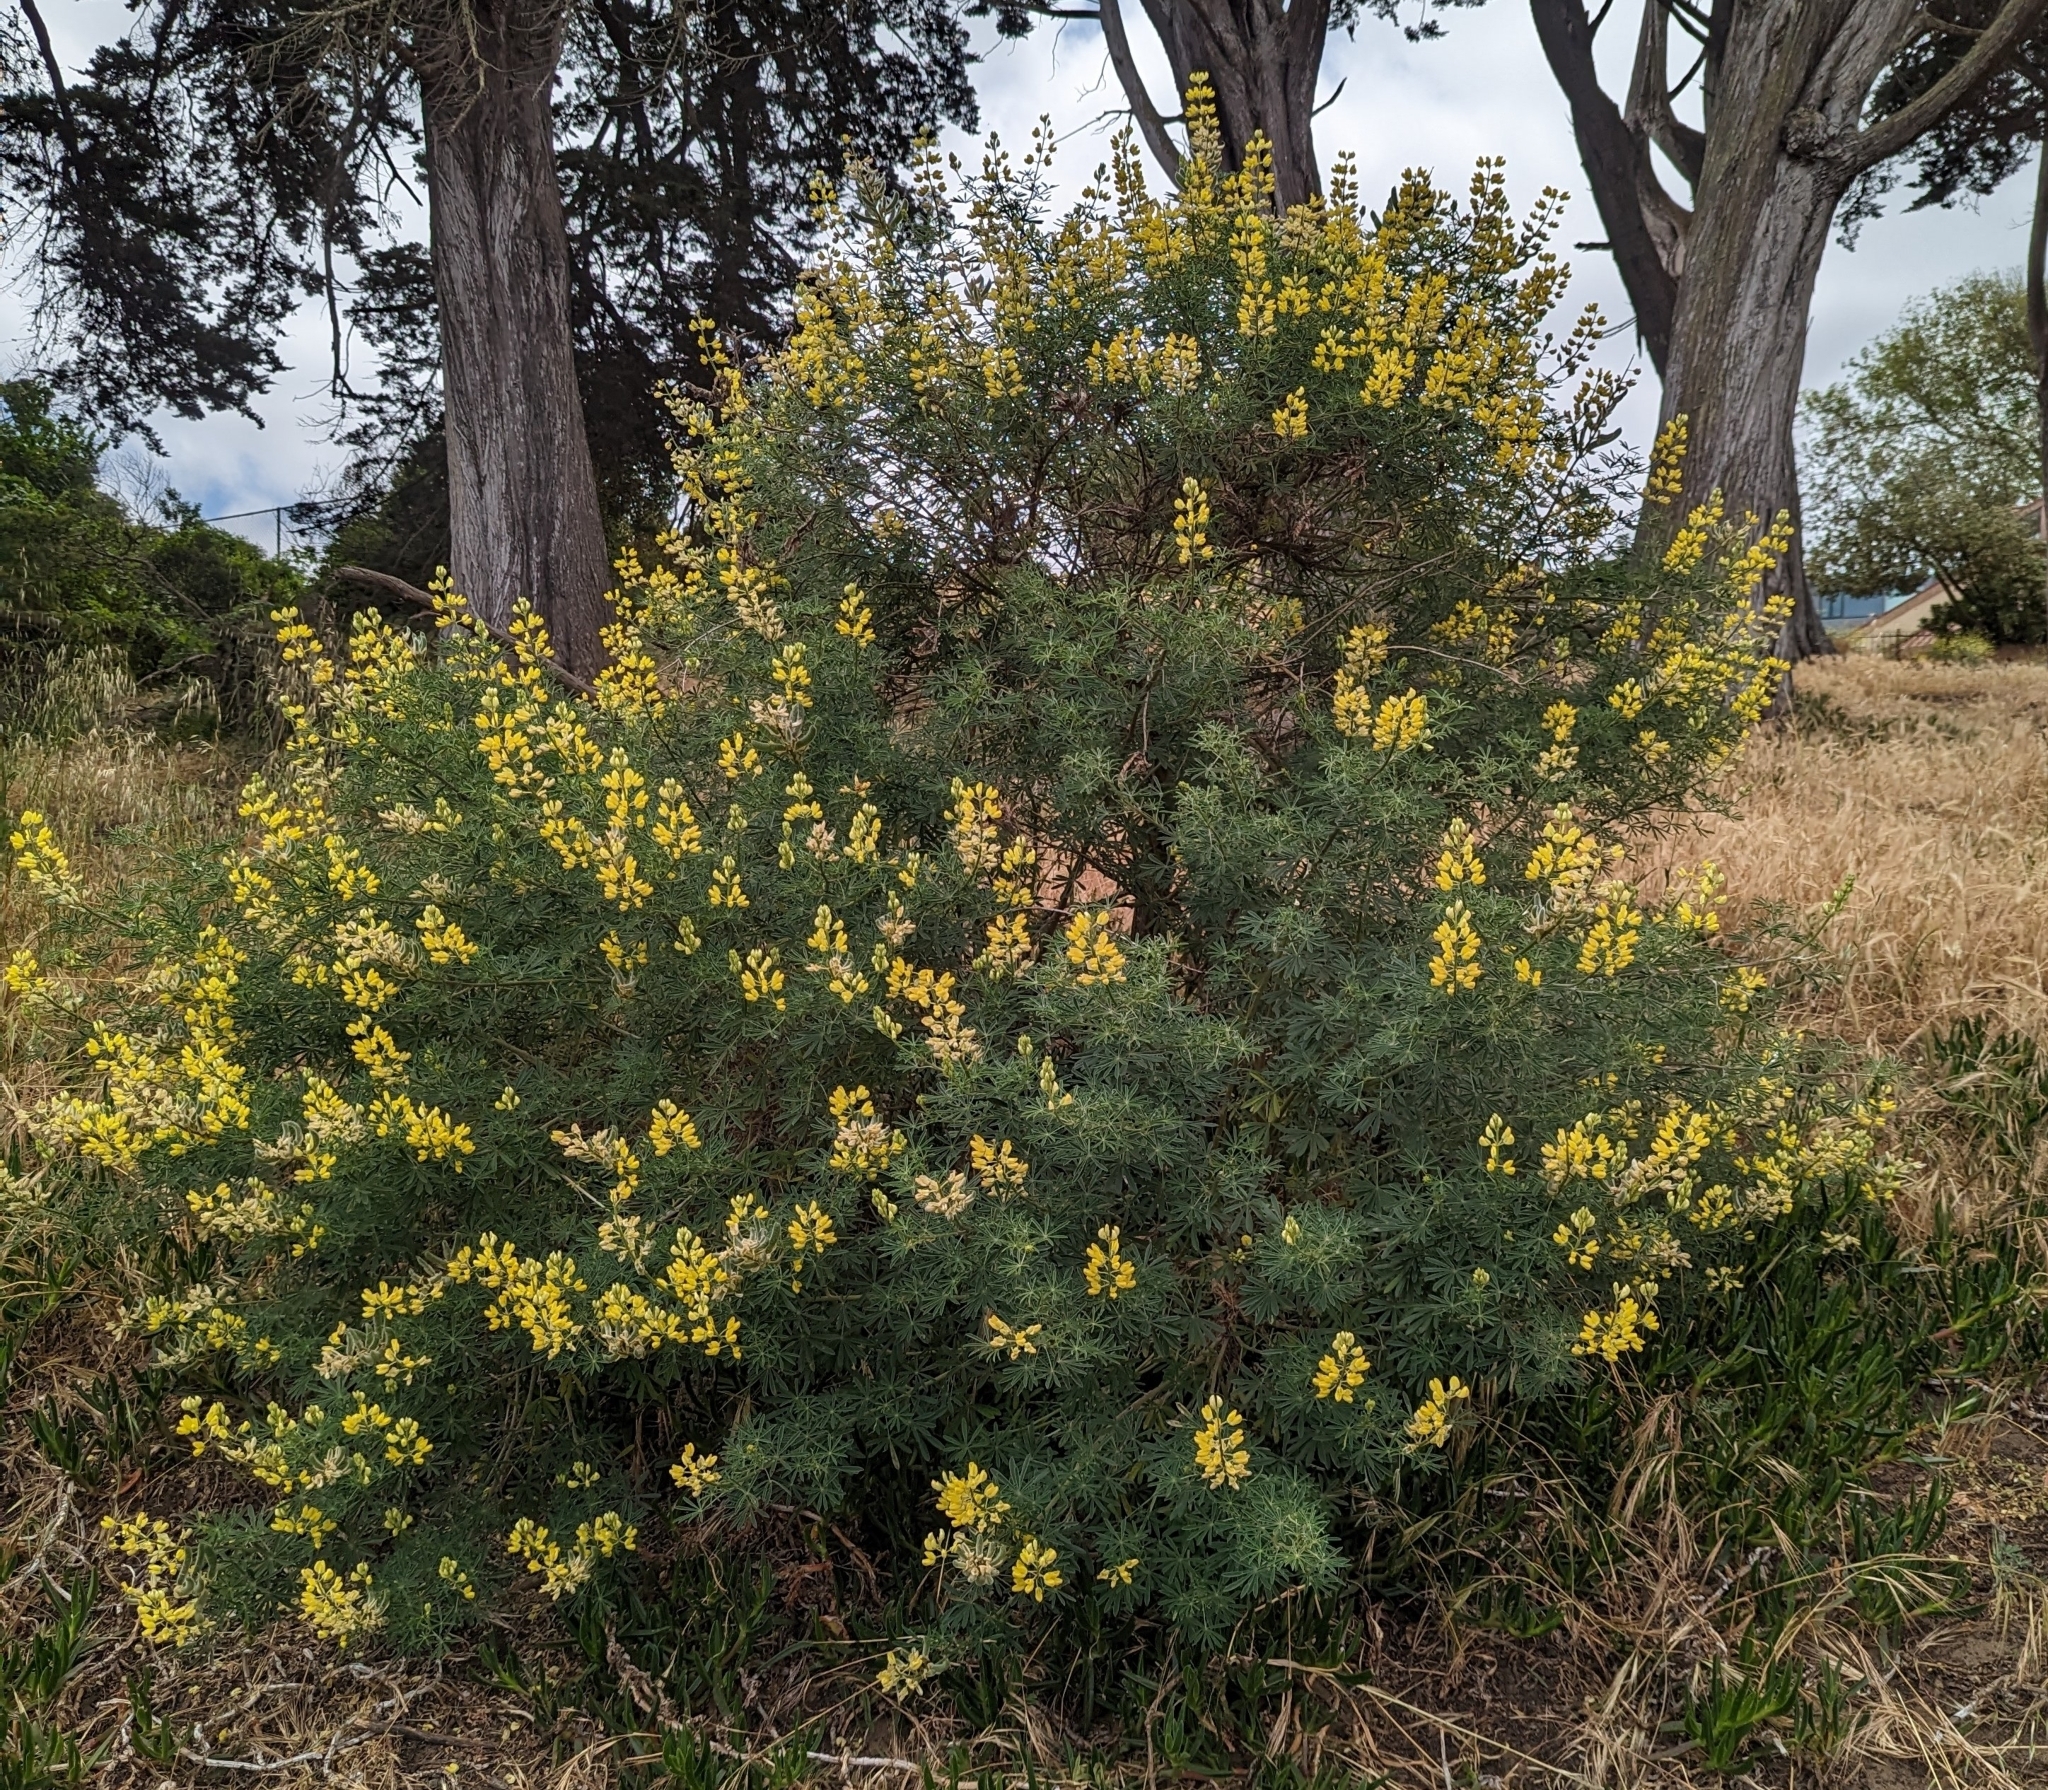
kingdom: Plantae
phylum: Tracheophyta
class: Magnoliopsida
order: Fabales
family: Fabaceae
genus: Lupinus
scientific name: Lupinus arboreus
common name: Yellow bush lupine
